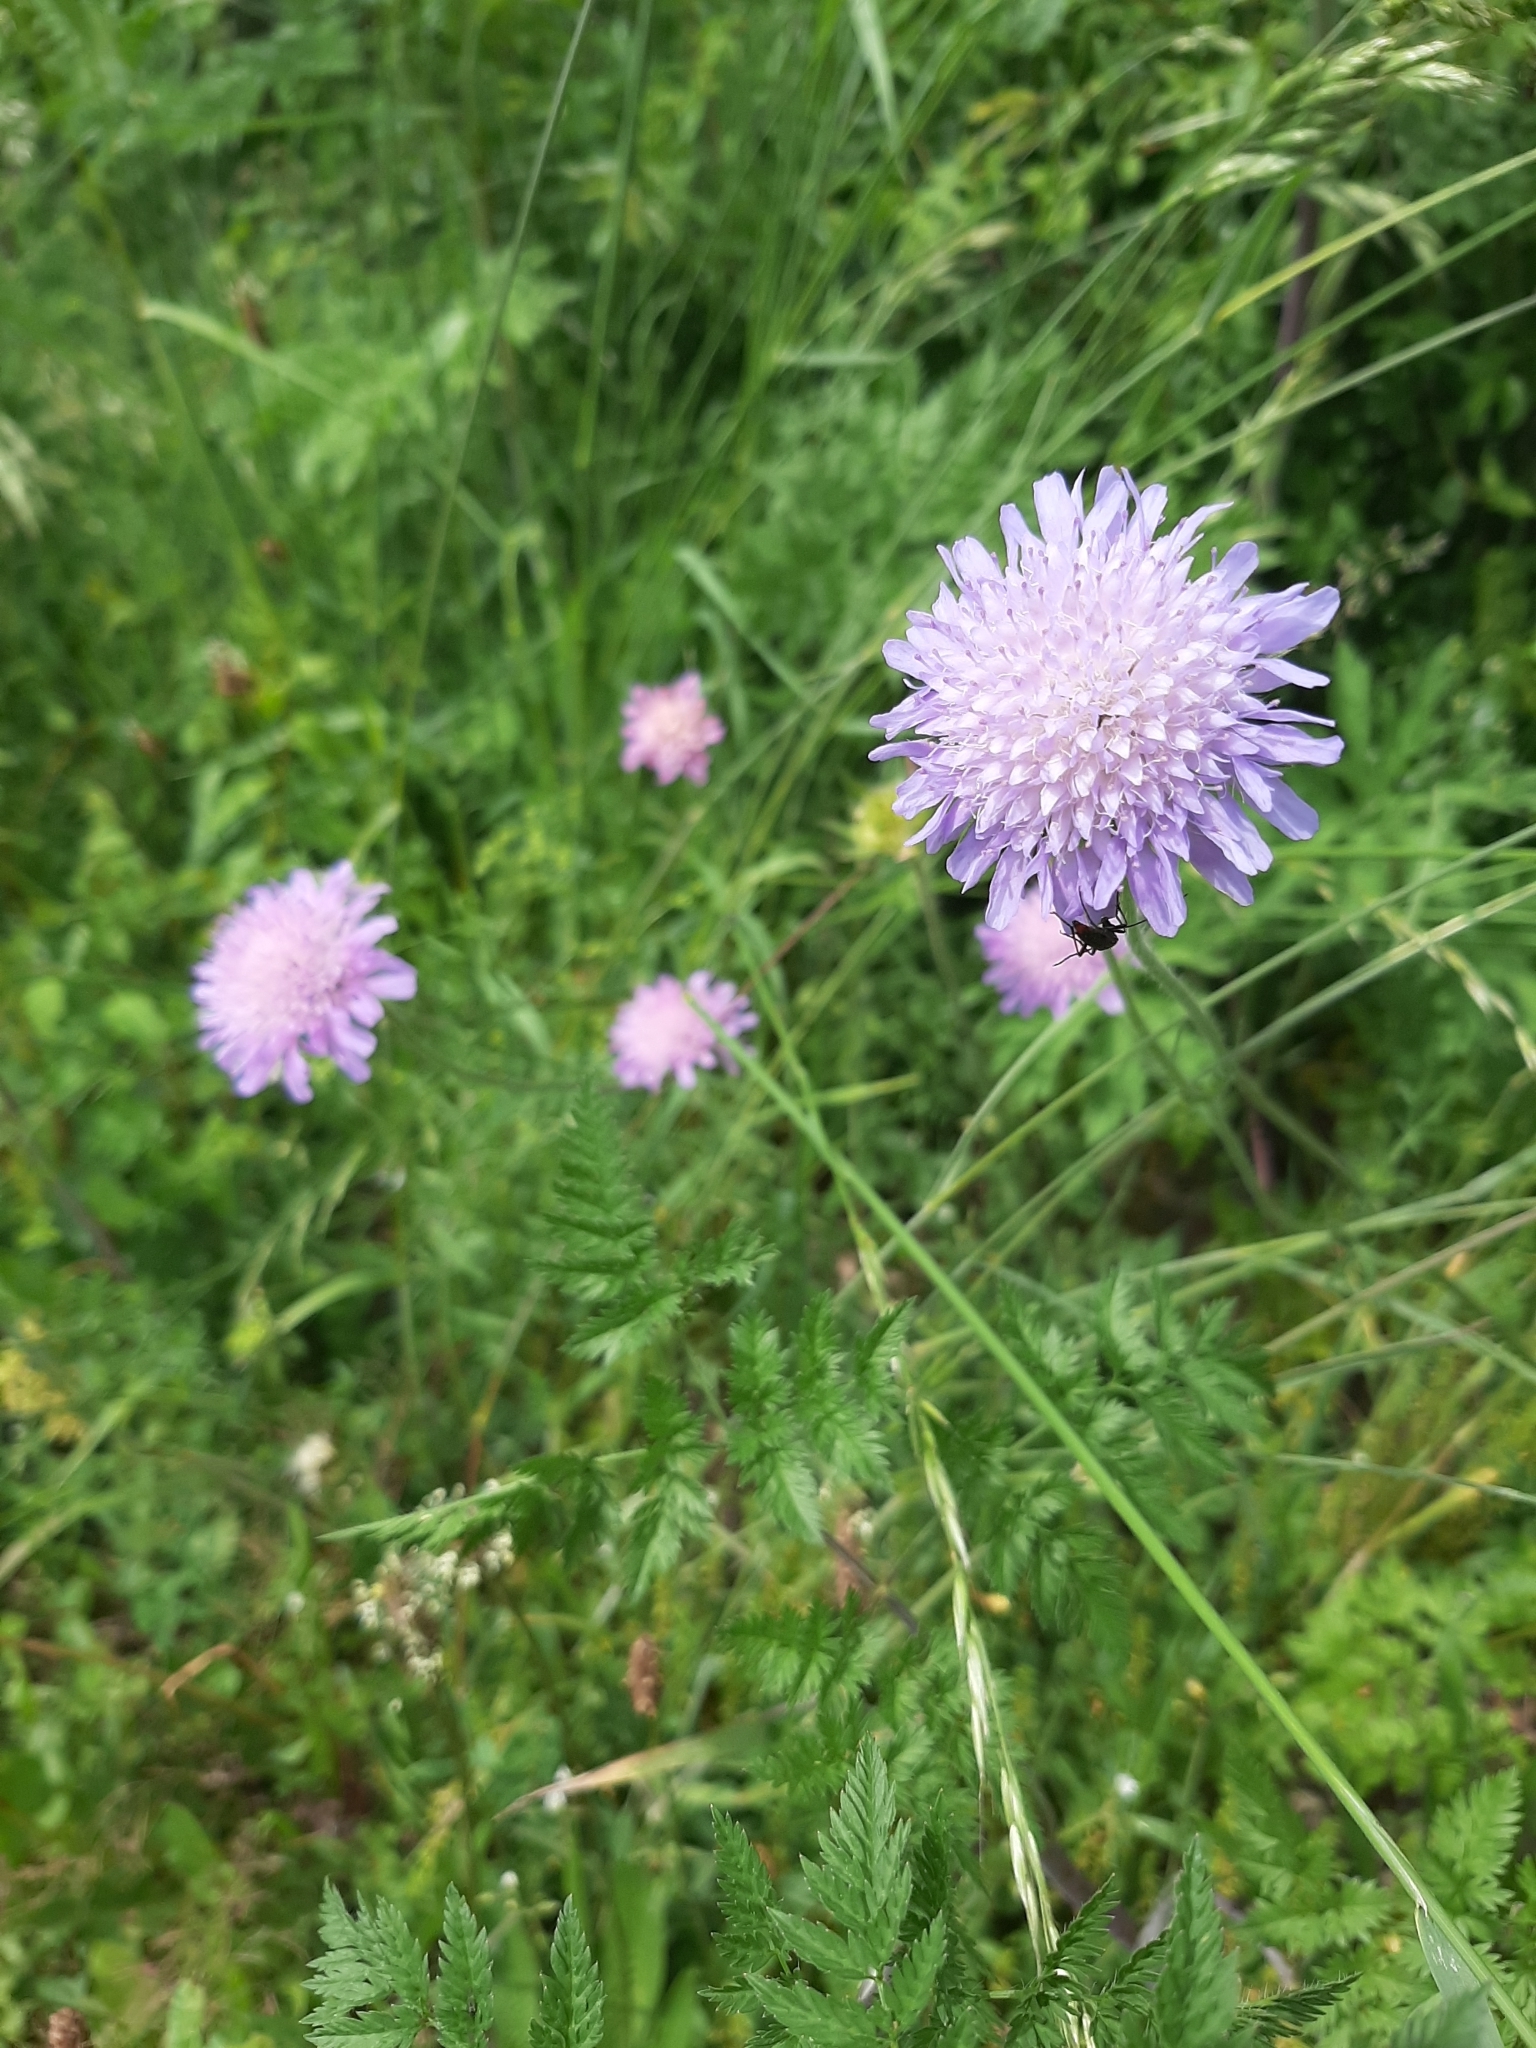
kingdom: Plantae
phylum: Tracheophyta
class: Magnoliopsida
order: Dipsacales
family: Caprifoliaceae
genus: Knautia
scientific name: Knautia arvensis
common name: Field scabiosa
